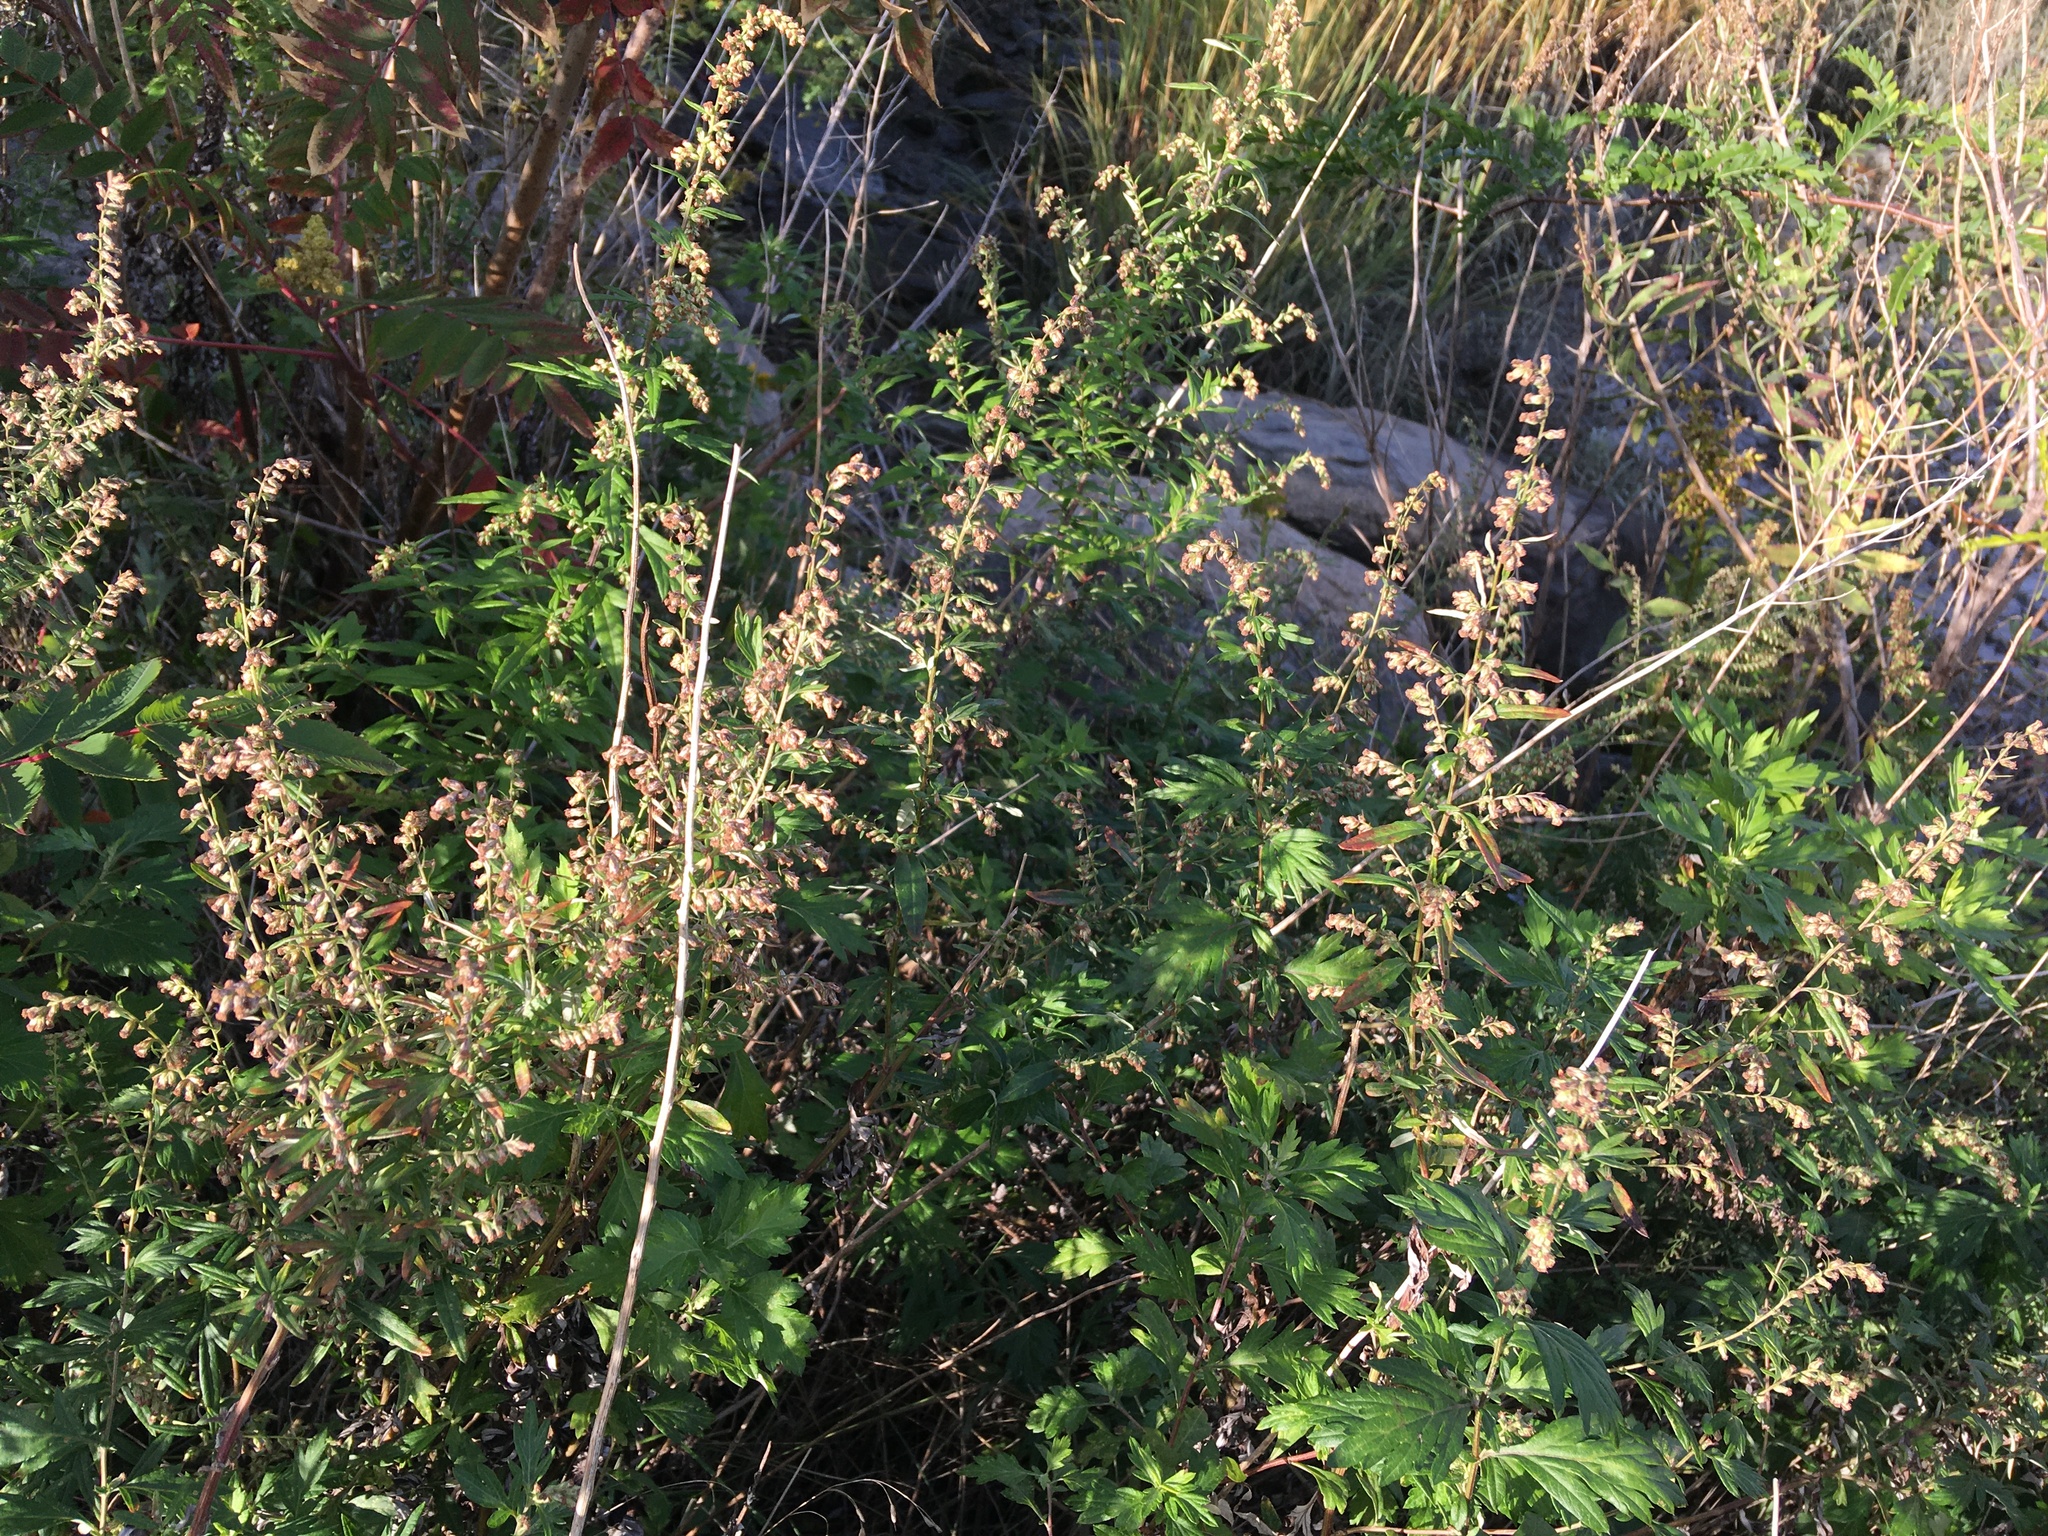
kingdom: Plantae
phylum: Tracheophyta
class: Magnoliopsida
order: Asterales
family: Asteraceae
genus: Artemisia
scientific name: Artemisia vulgaris
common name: Mugwort
